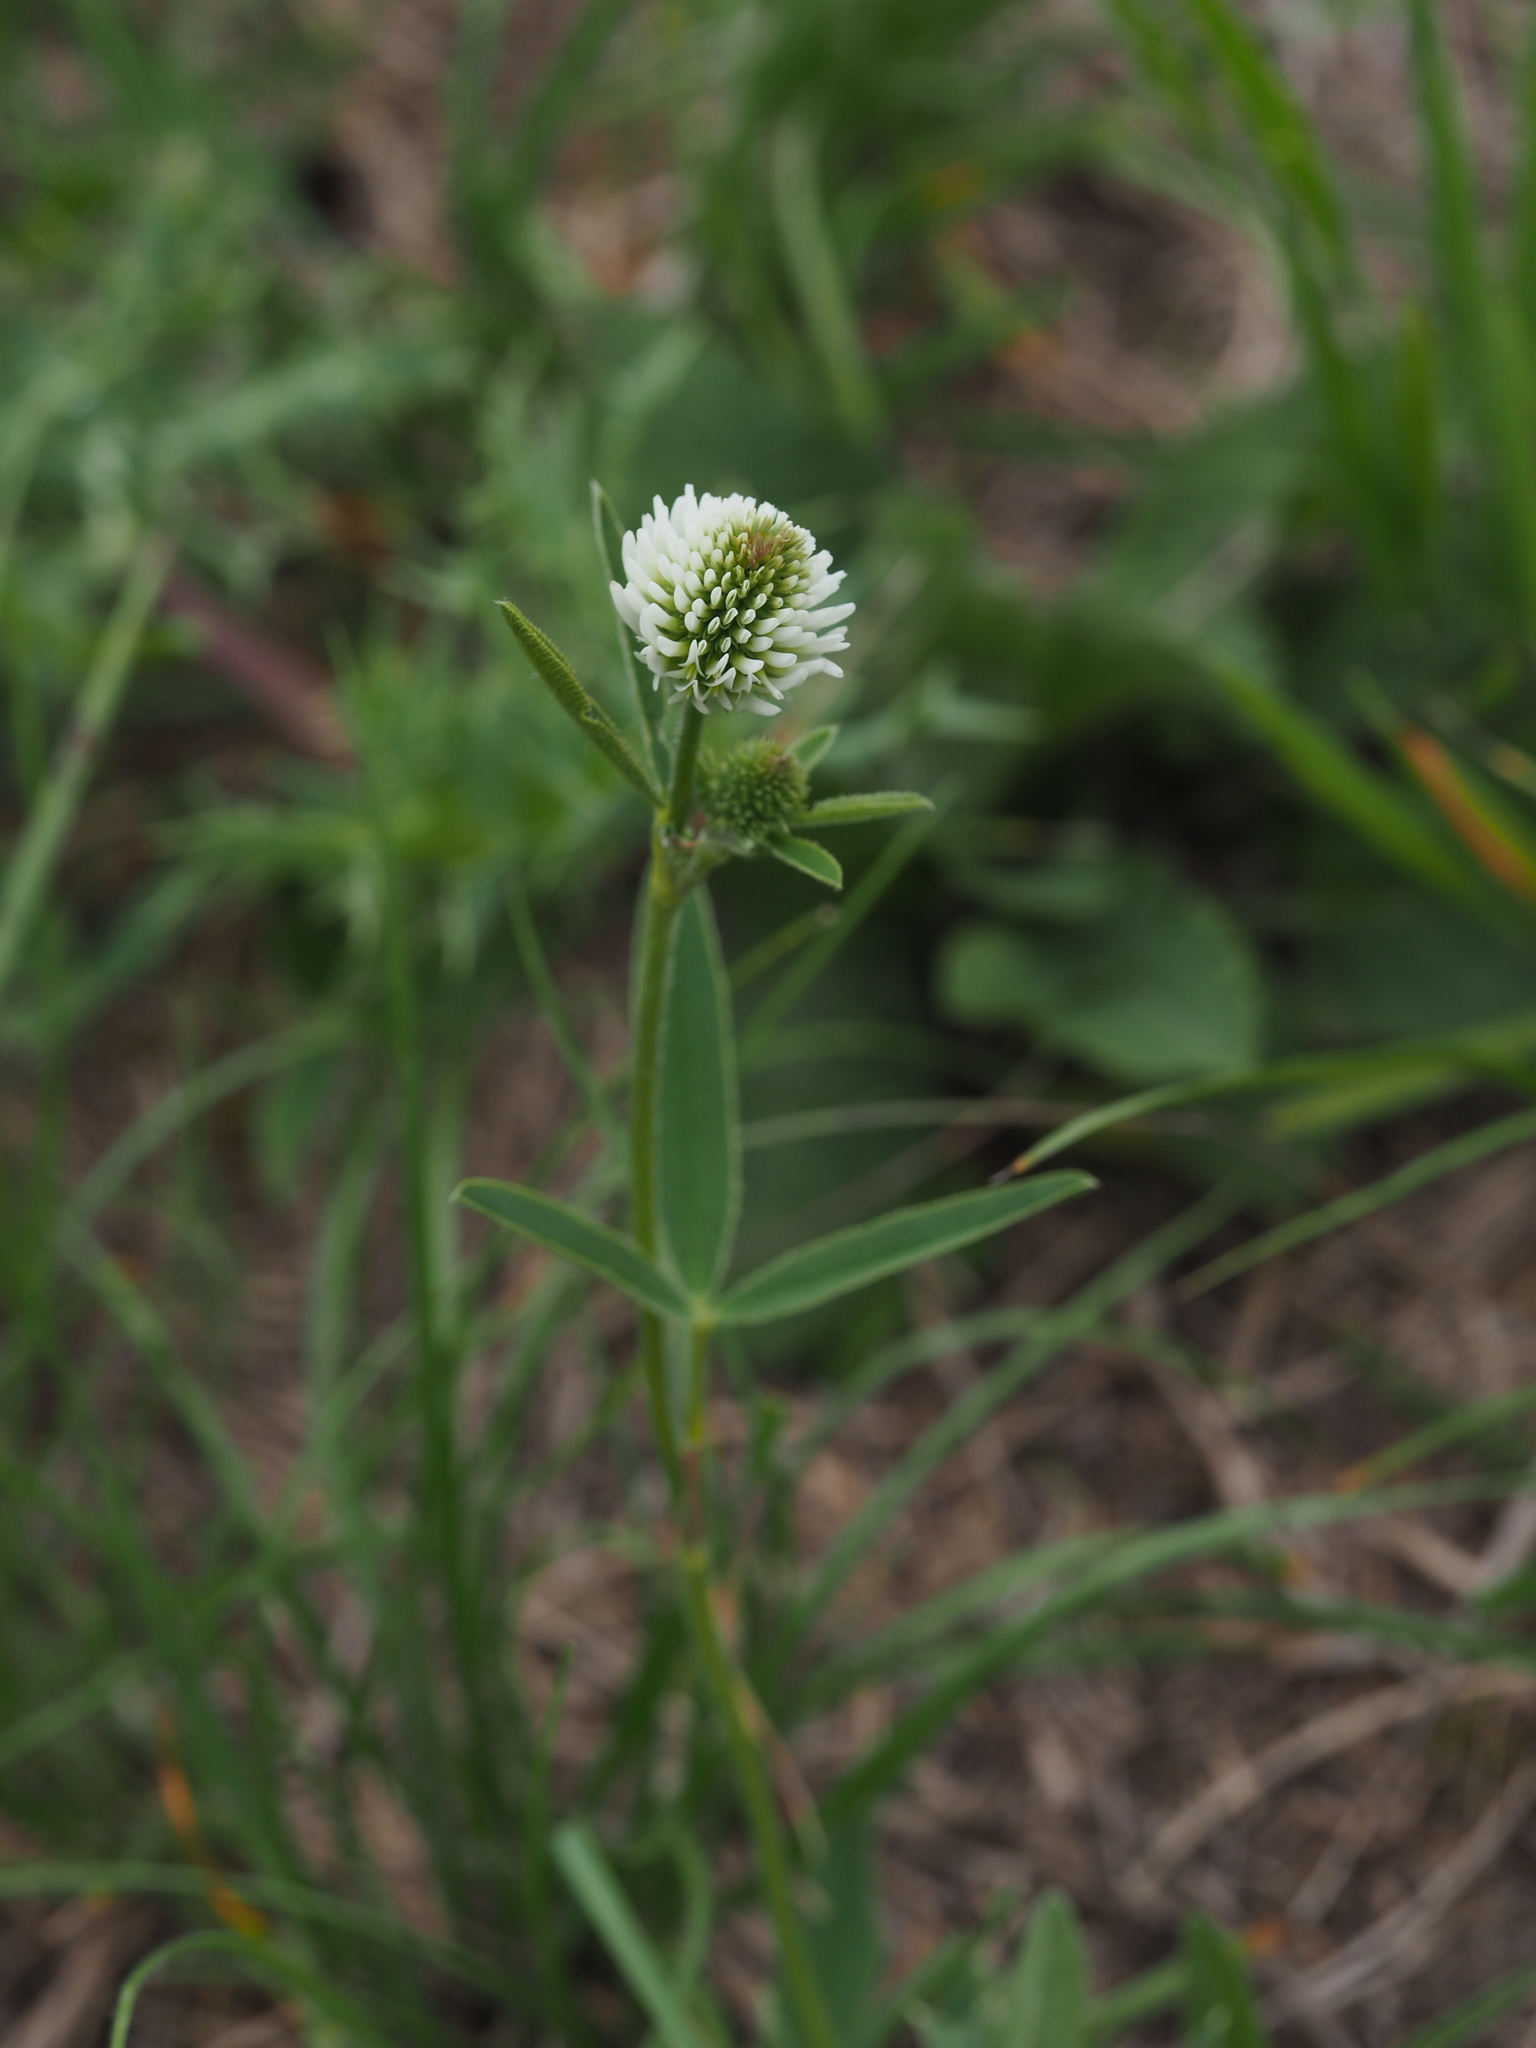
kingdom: Plantae
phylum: Tracheophyta
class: Magnoliopsida
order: Fabales
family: Fabaceae
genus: Trifolium
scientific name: Trifolium montanum
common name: Mountain clover
